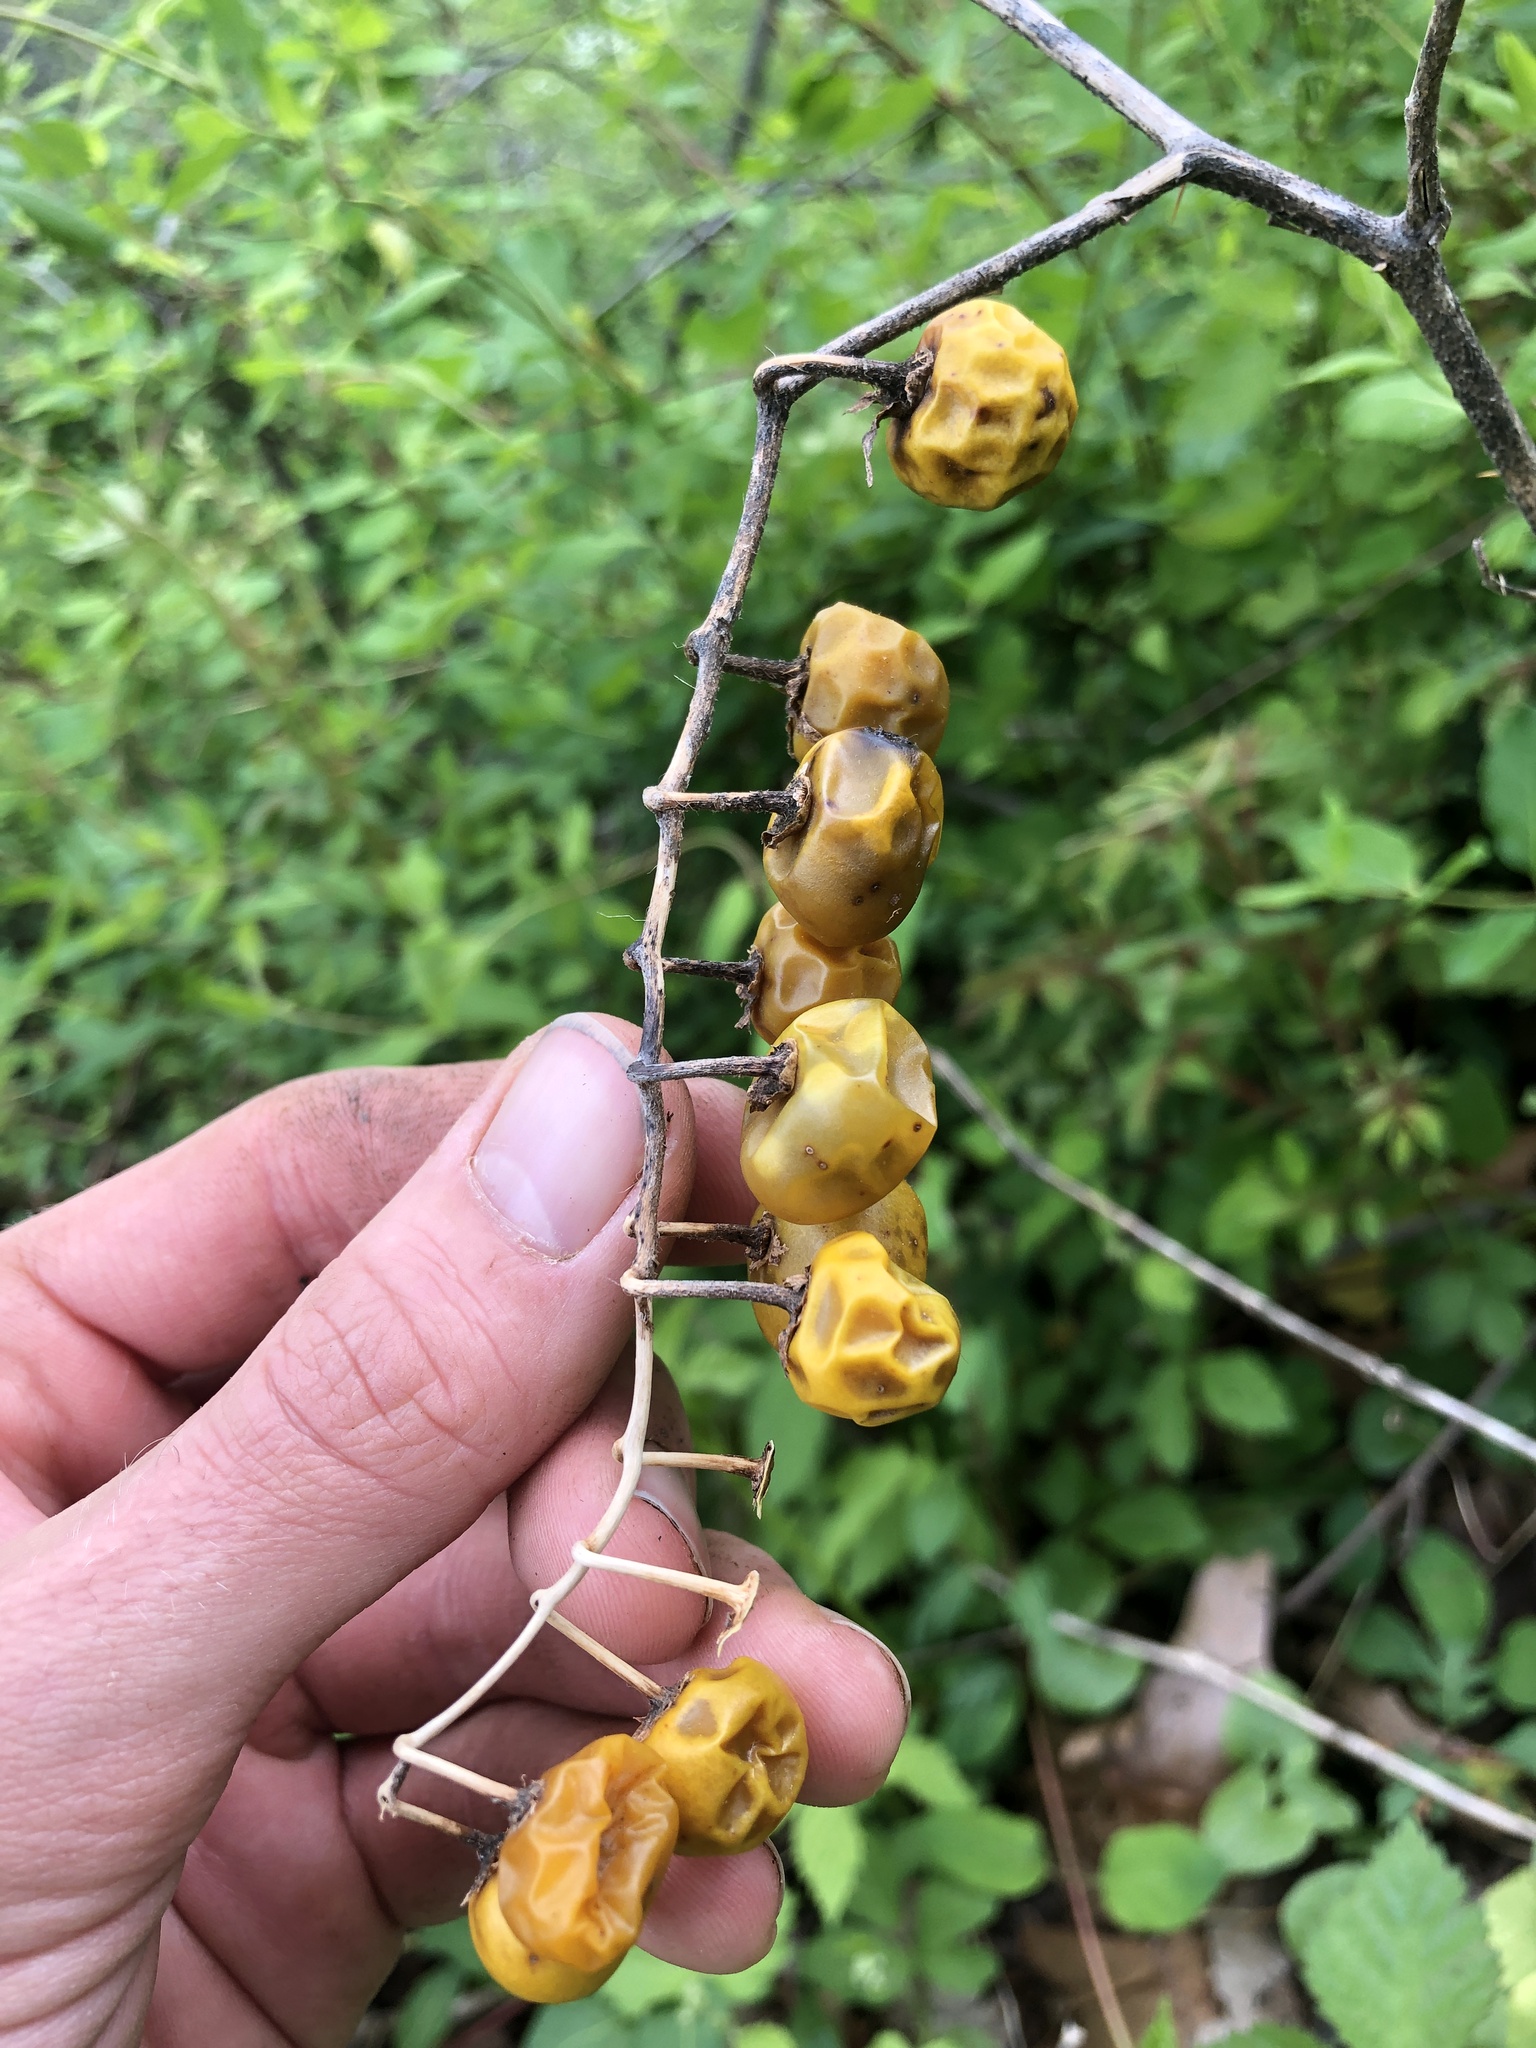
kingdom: Plantae
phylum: Tracheophyta
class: Magnoliopsida
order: Solanales
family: Solanaceae
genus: Solanum
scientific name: Solanum carolinense
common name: Horse-nettle
